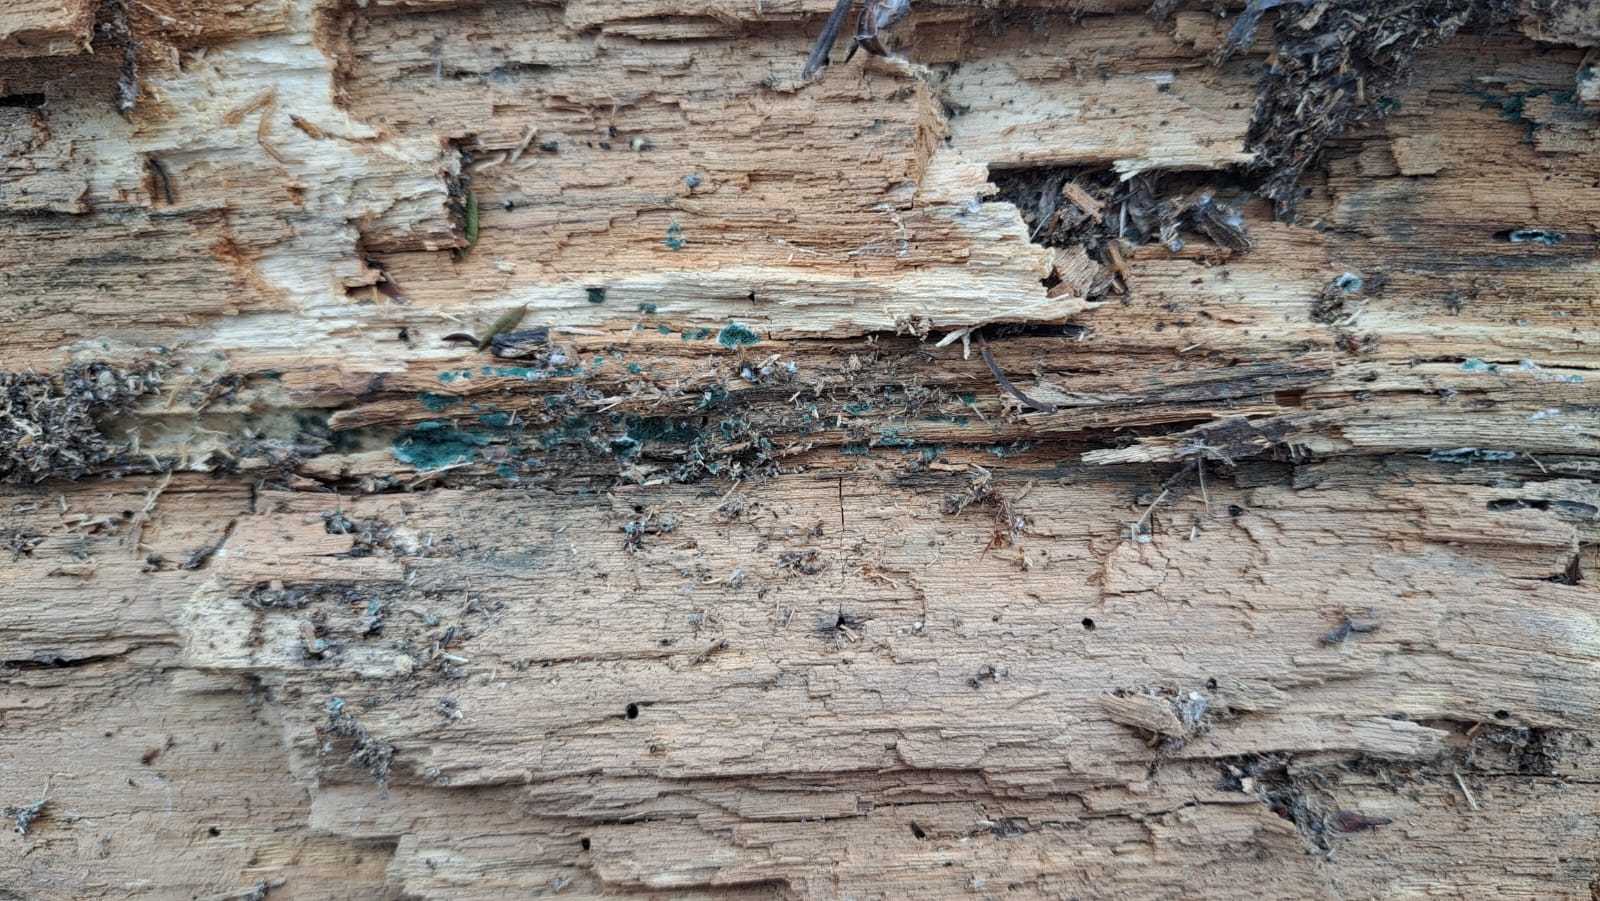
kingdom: Fungi
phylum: Ascomycota
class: Sordariomycetes
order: Hypocreales
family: Hypocreaceae
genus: Trichoderma
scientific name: Trichoderma viride
